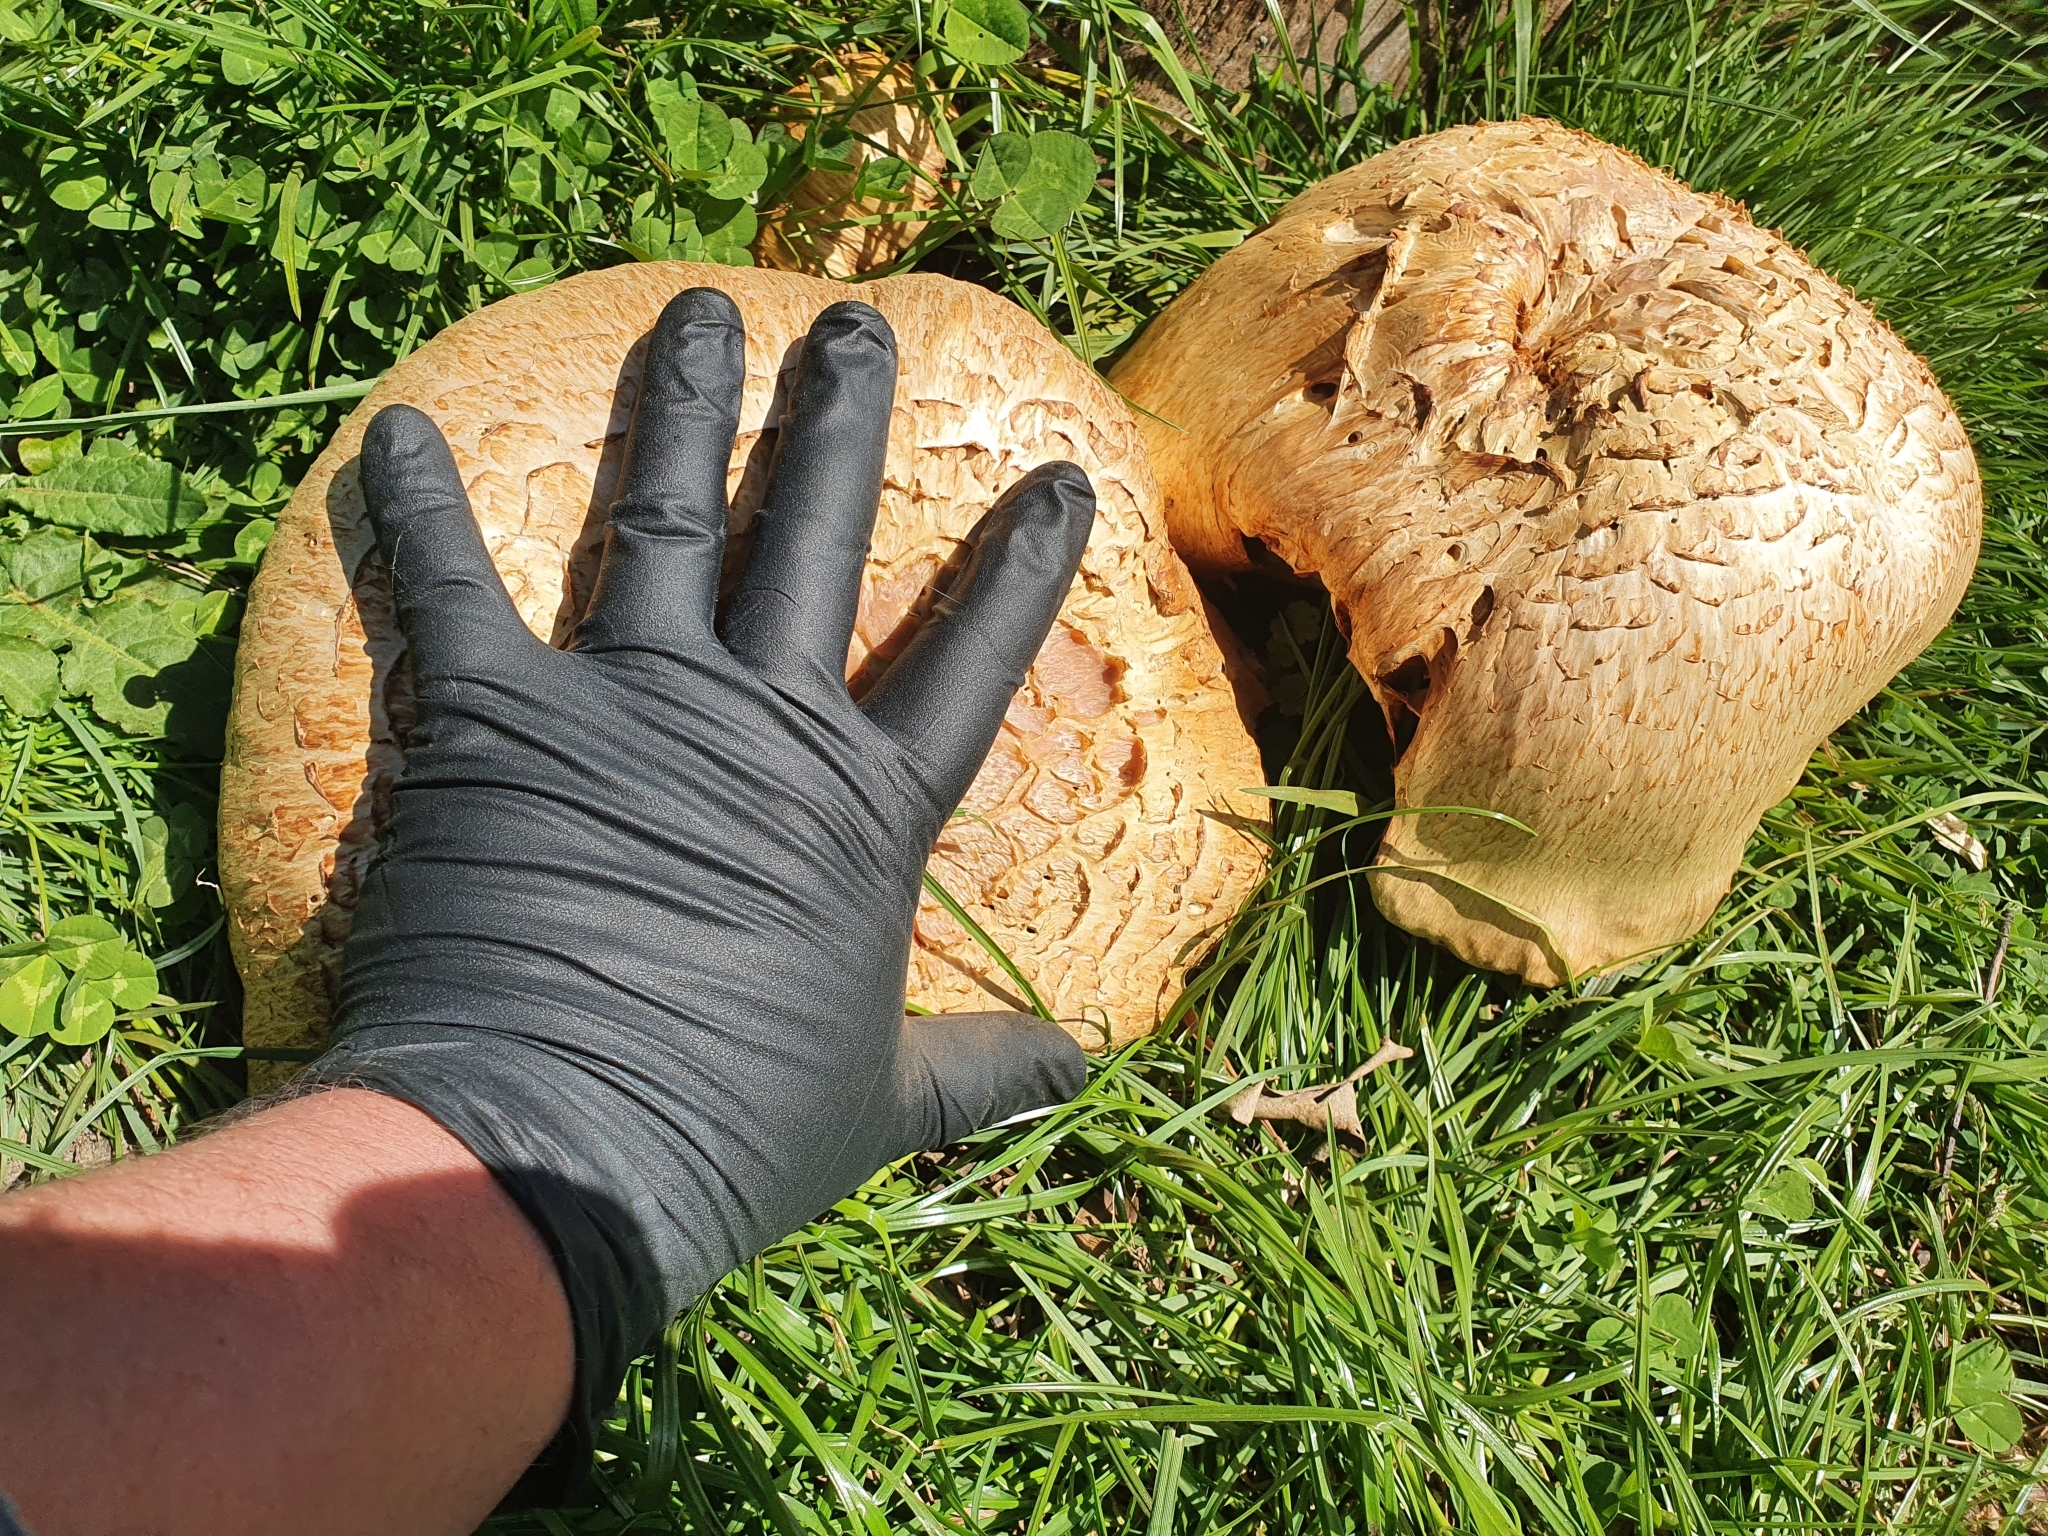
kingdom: Fungi
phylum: Basidiomycota
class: Agaricomycetes
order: Agaricales
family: Hymenogastraceae
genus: Gymnopilus
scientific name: Gymnopilus junonius
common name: Spectacular rustgill
